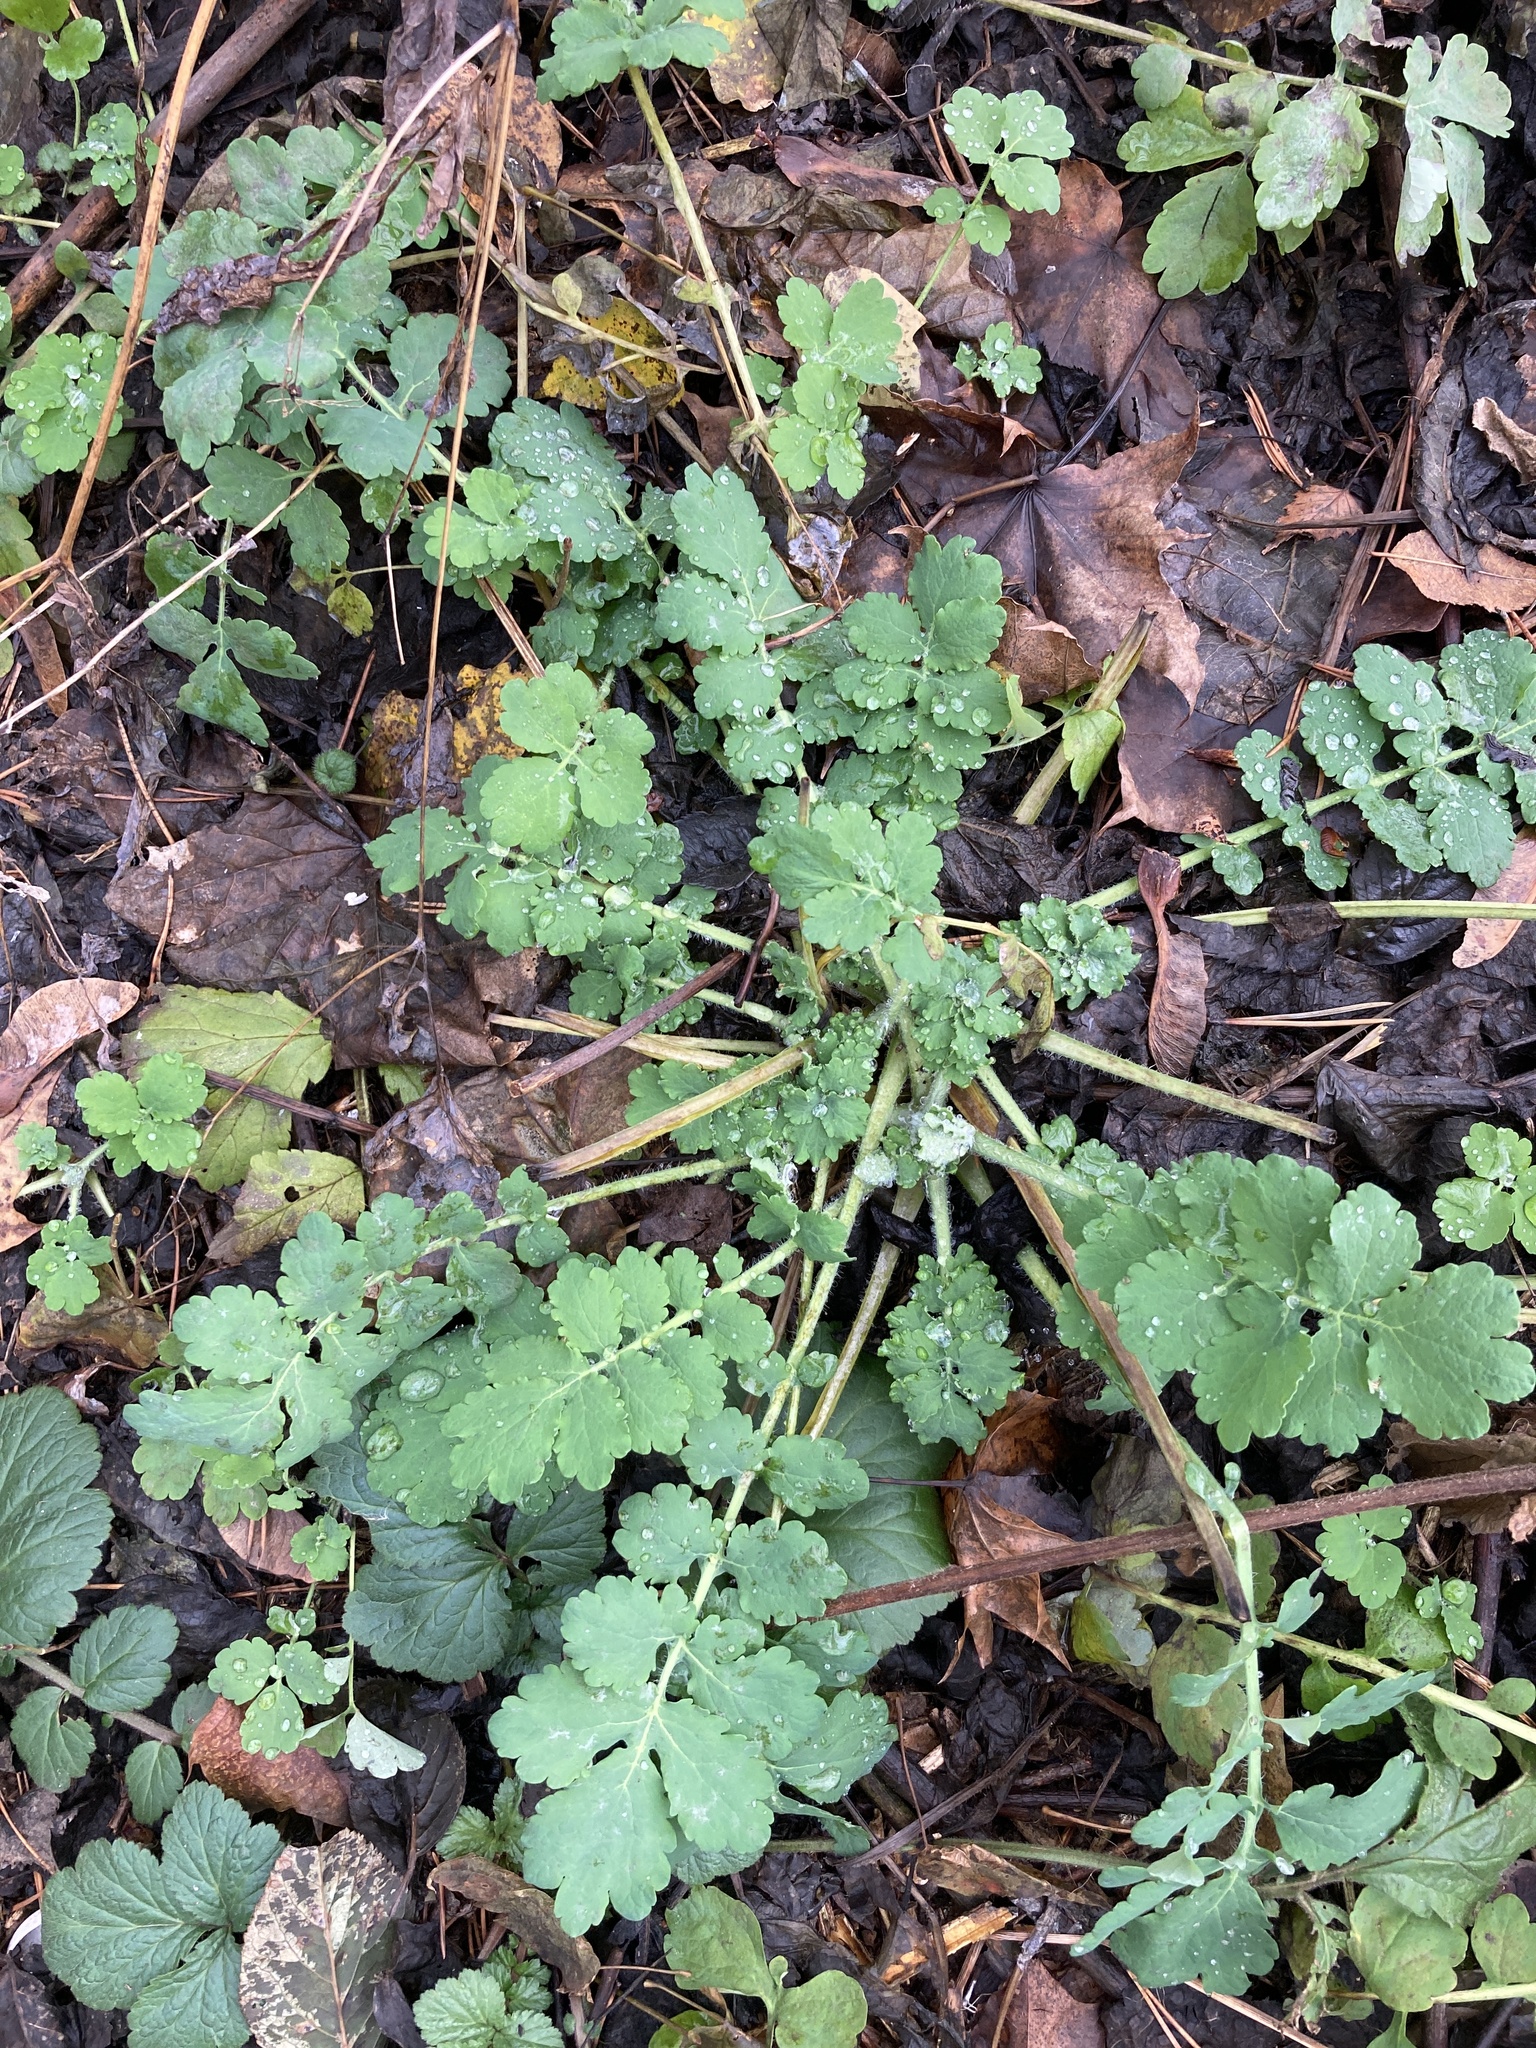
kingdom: Plantae
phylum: Tracheophyta
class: Magnoliopsida
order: Ranunculales
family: Papaveraceae
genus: Chelidonium
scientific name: Chelidonium majus
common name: Greater celandine
